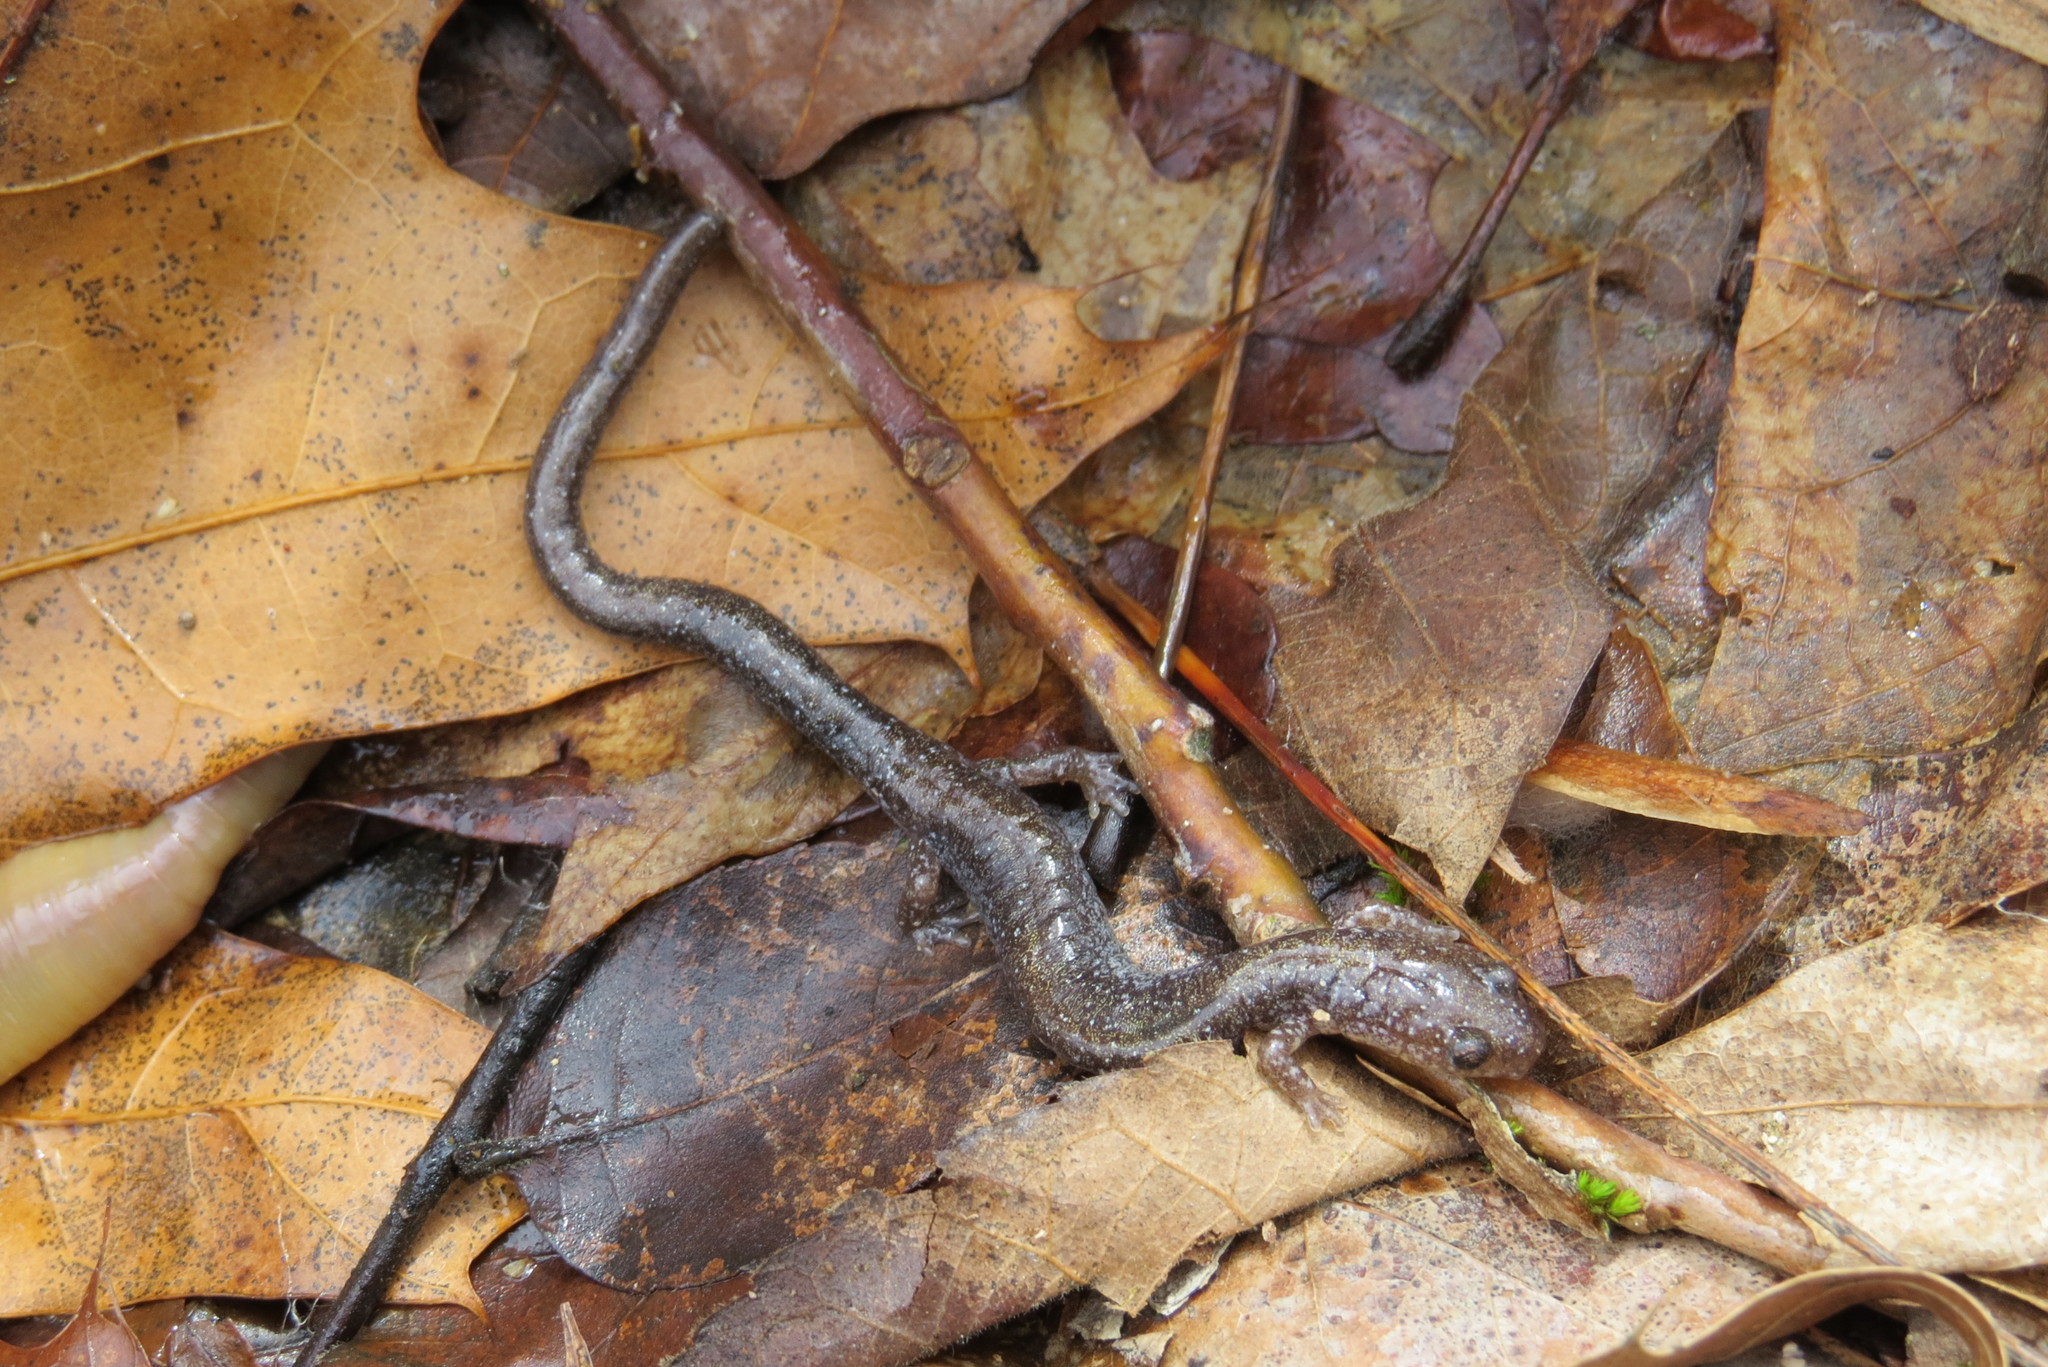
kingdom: Animalia
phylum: Chordata
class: Amphibia
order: Caudata
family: Plethodontidae
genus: Plethodon
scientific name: Plethodon dorsalis
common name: Northern zigzag salamander
